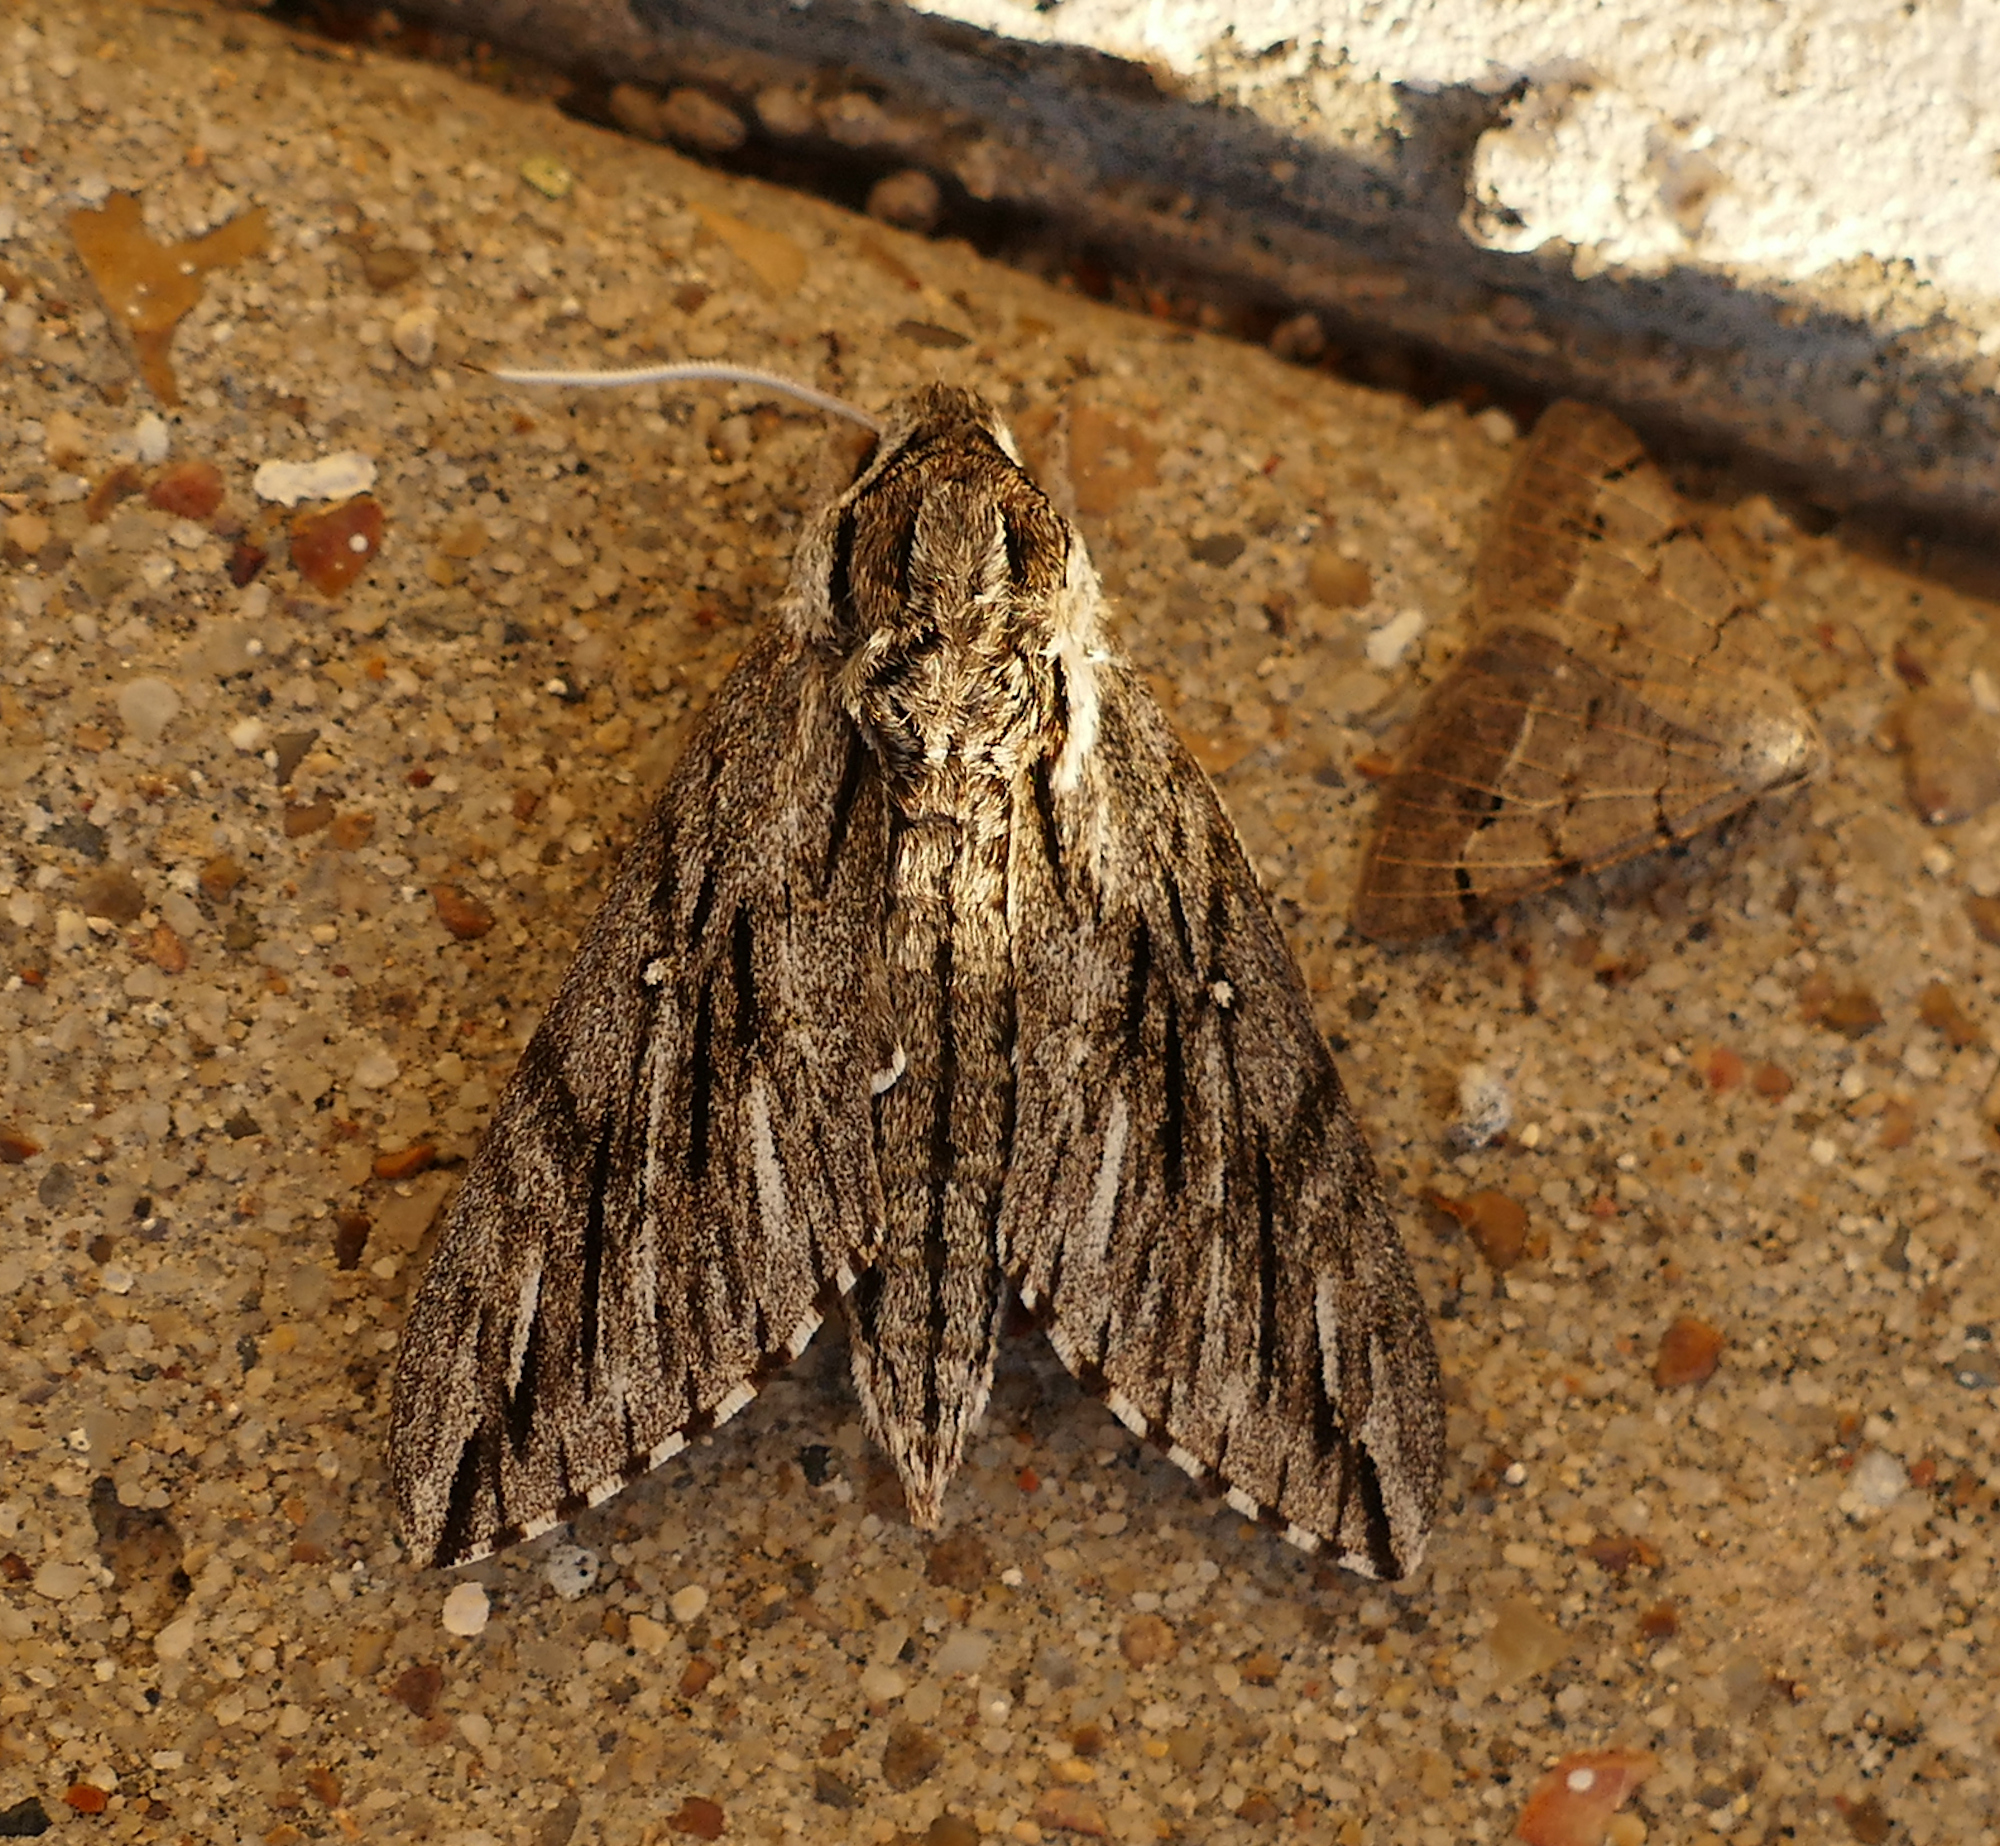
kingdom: Animalia
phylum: Arthropoda
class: Insecta
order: Lepidoptera
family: Sphingidae
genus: Paratrea
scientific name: Paratrea plebeja
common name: Plebian sphinx
